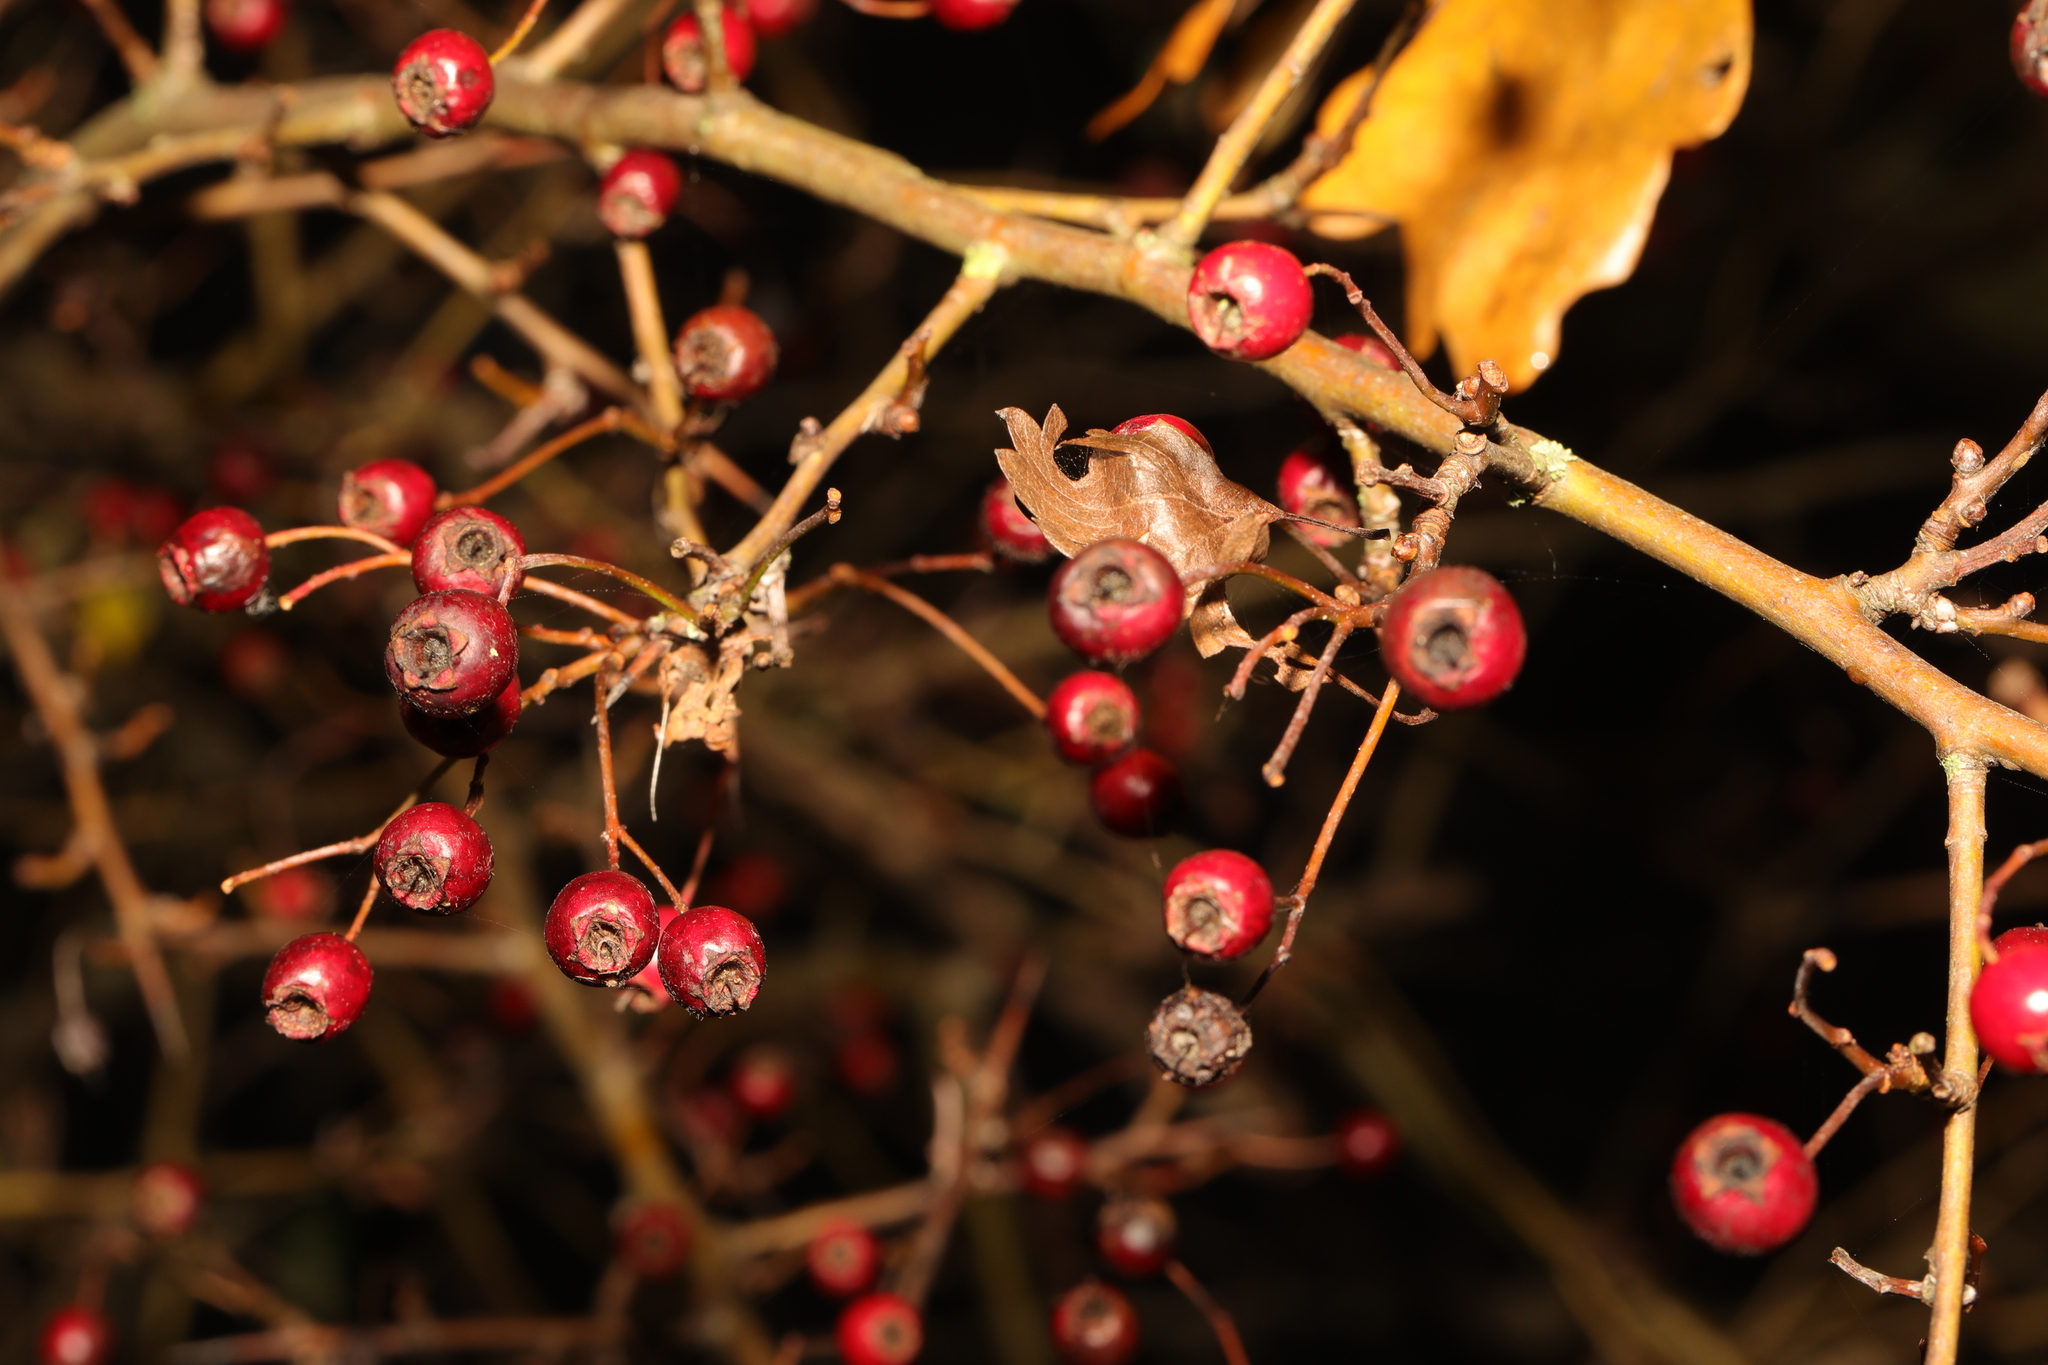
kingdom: Plantae
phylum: Tracheophyta
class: Magnoliopsida
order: Rosales
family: Rosaceae
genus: Crataegus
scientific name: Crataegus monogyna
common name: Hawthorn
